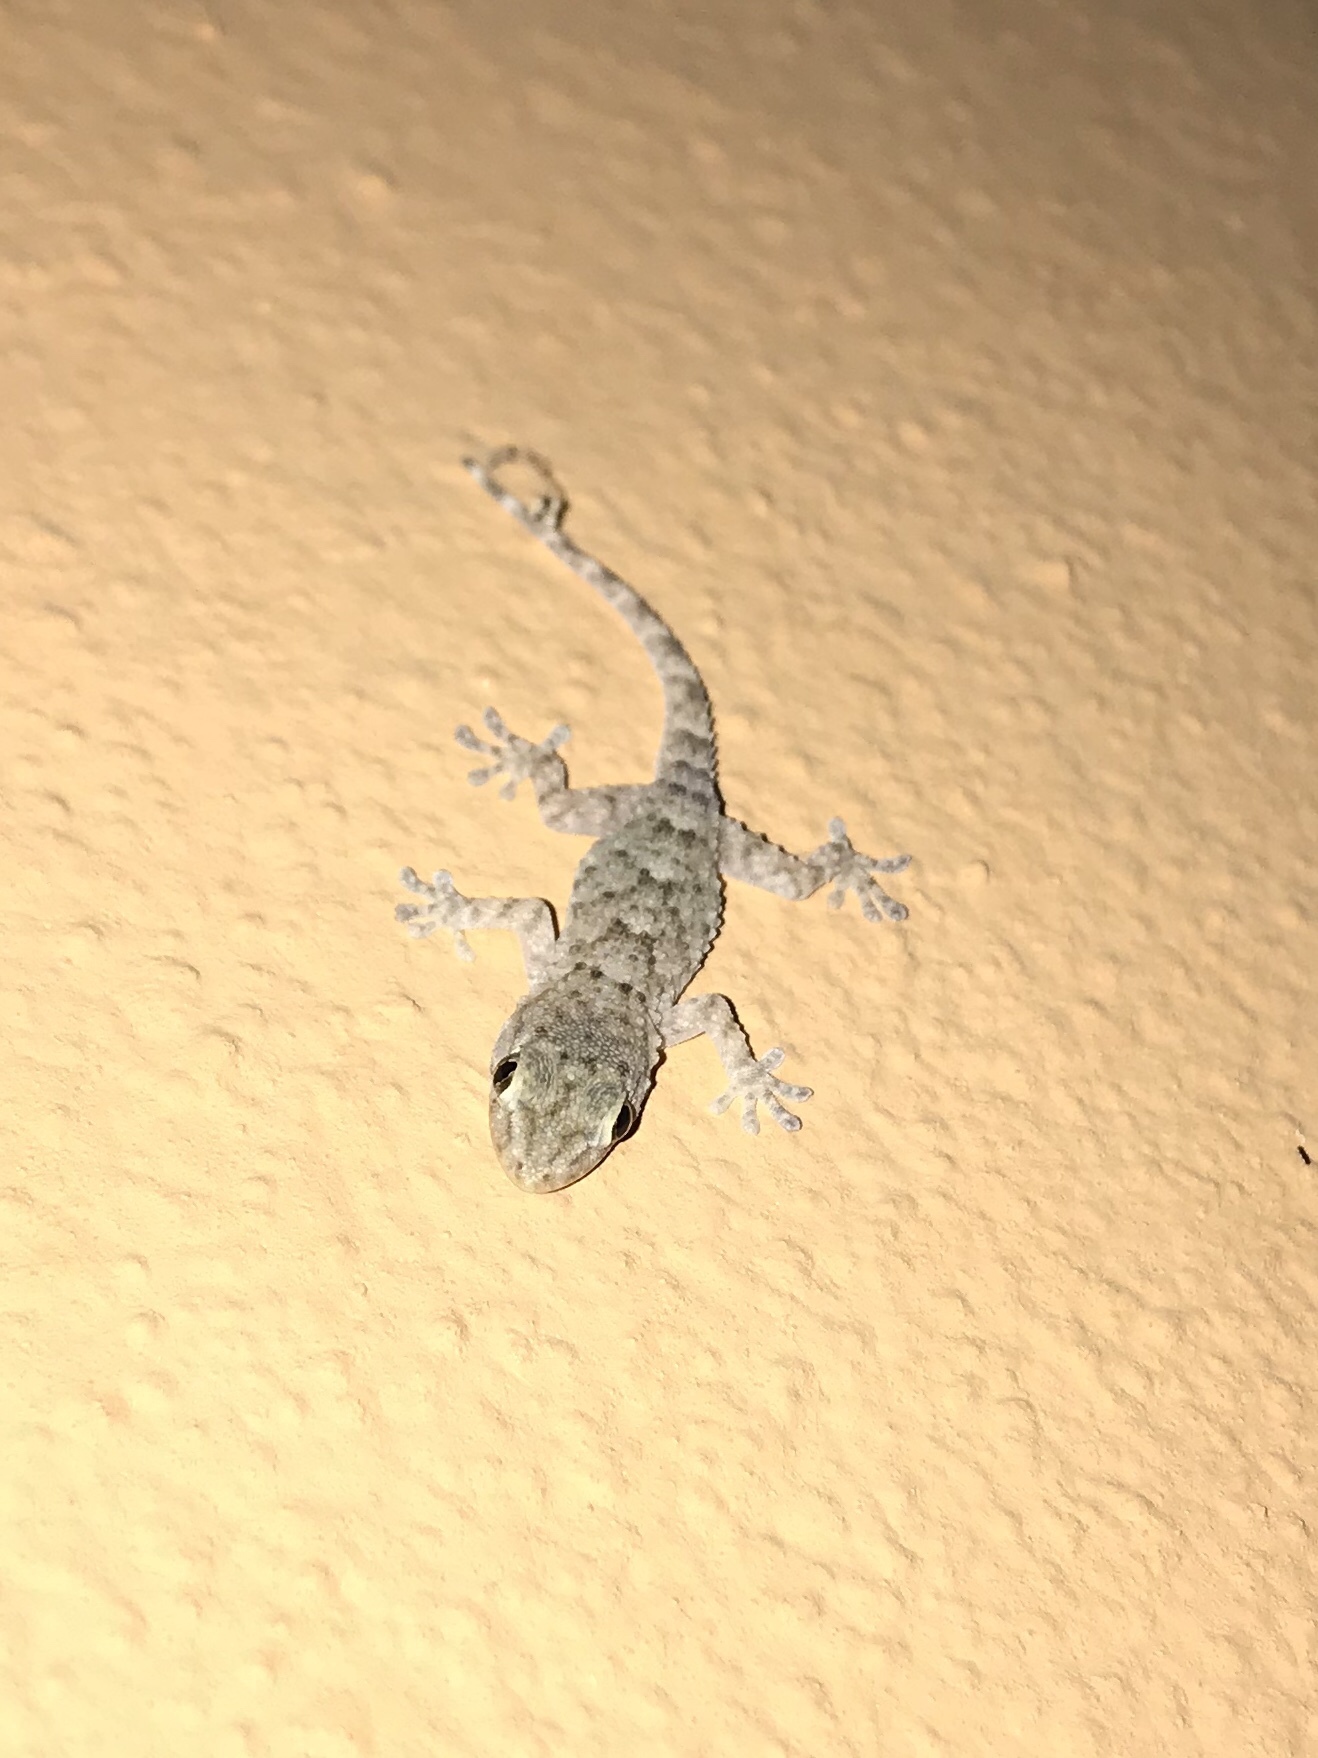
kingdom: Animalia
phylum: Chordata
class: Squamata
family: Phyllodactylidae
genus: Tarentola
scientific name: Tarentola mauritanica
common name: Moorish gecko
